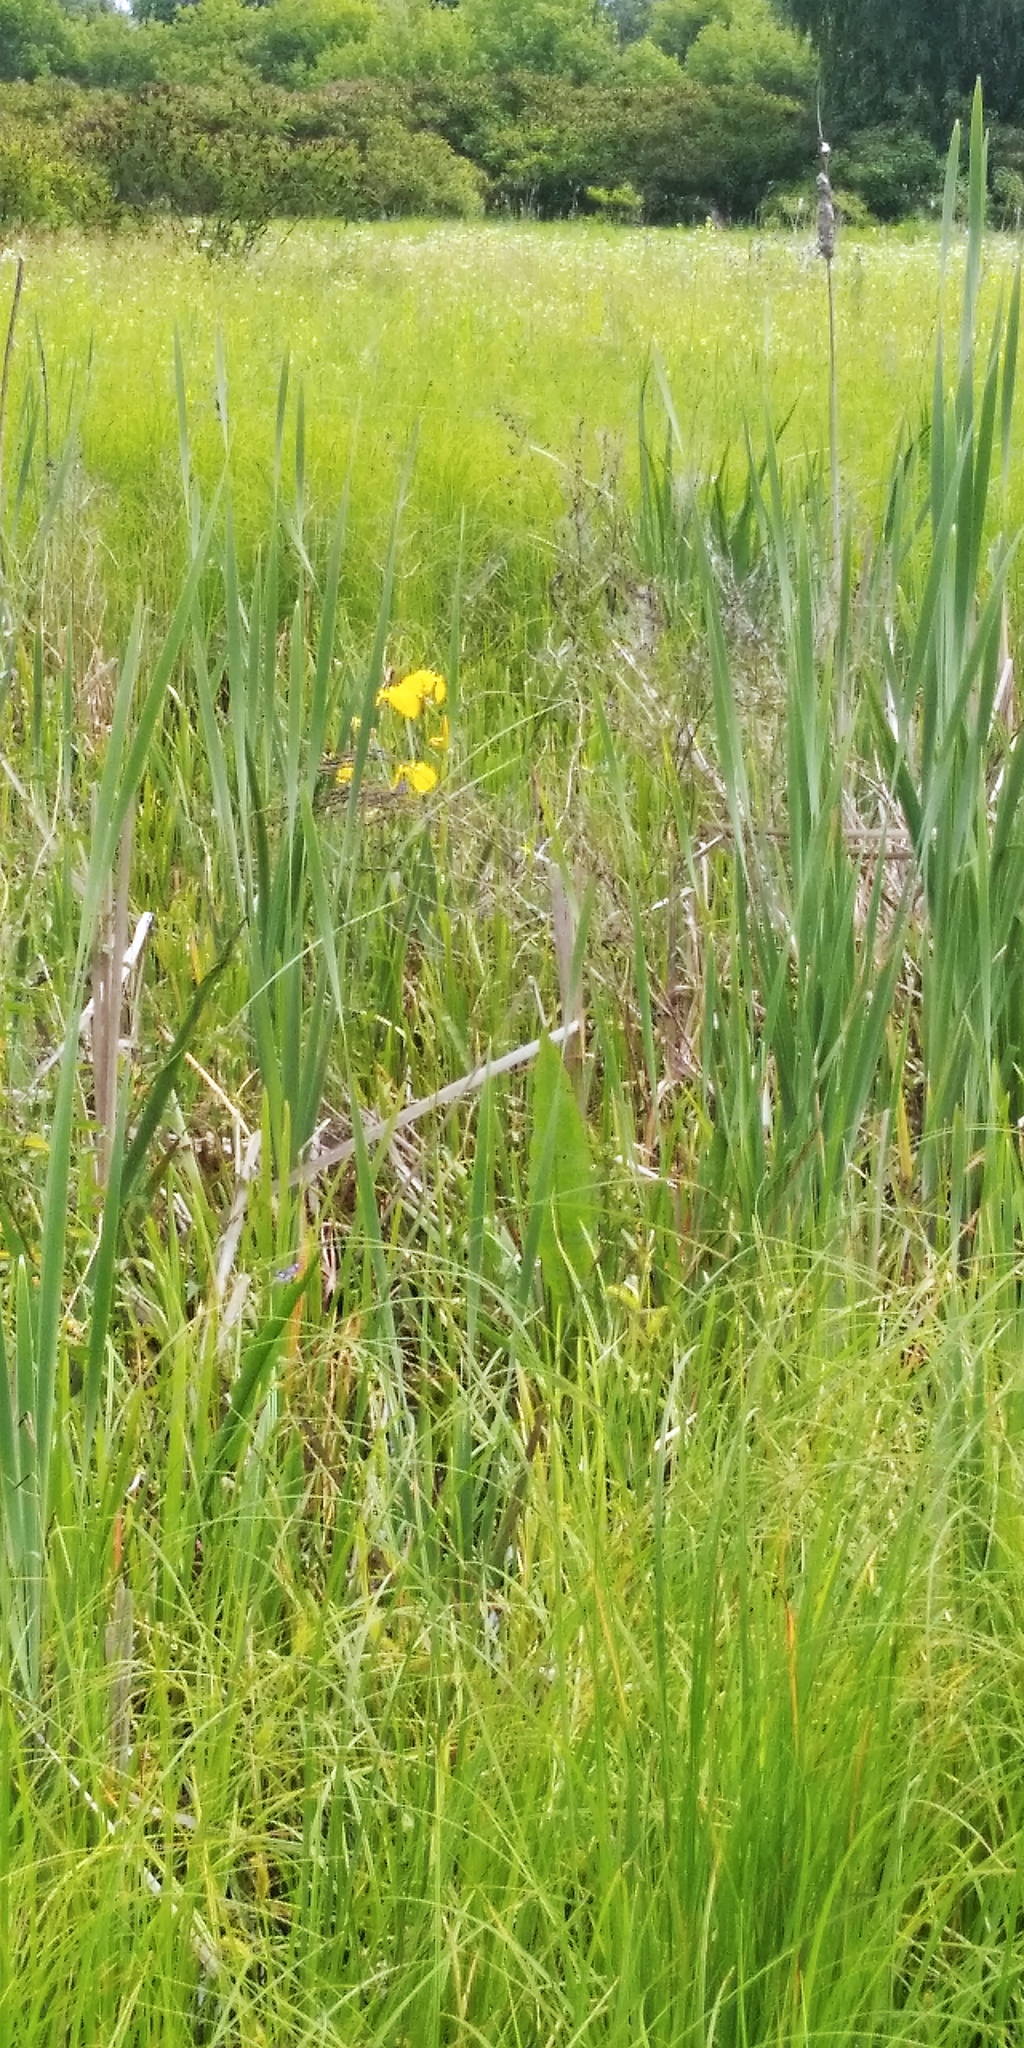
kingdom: Plantae
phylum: Tracheophyta
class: Liliopsida
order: Asparagales
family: Iridaceae
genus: Iris
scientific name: Iris pseudacorus
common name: Yellow flag
